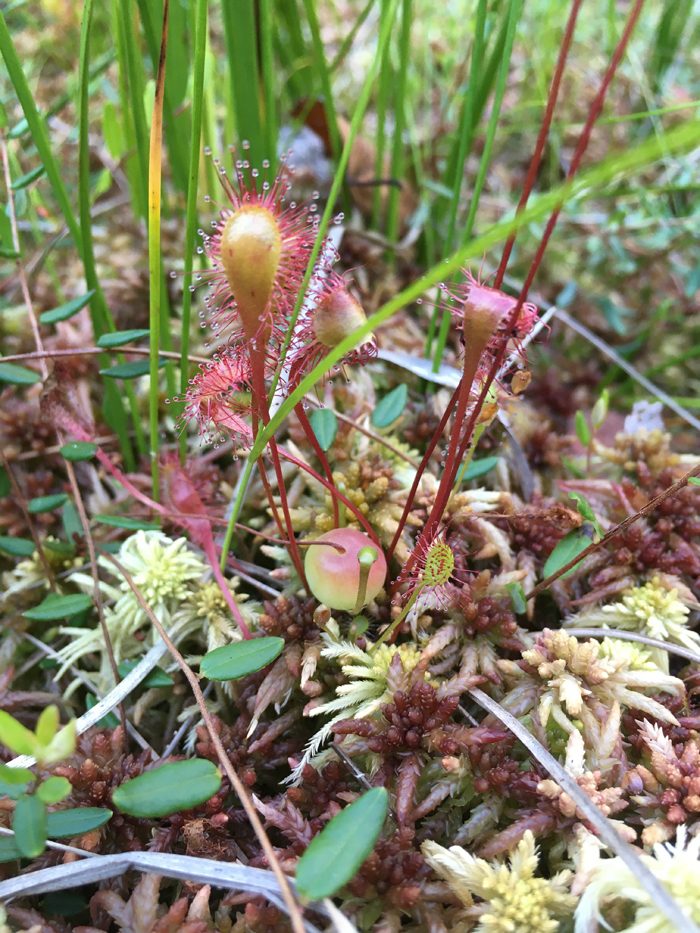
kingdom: Plantae
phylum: Tracheophyta
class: Magnoliopsida
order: Caryophyllales
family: Droseraceae
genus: Drosera
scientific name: Drosera obovata
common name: Ivan's paddle
